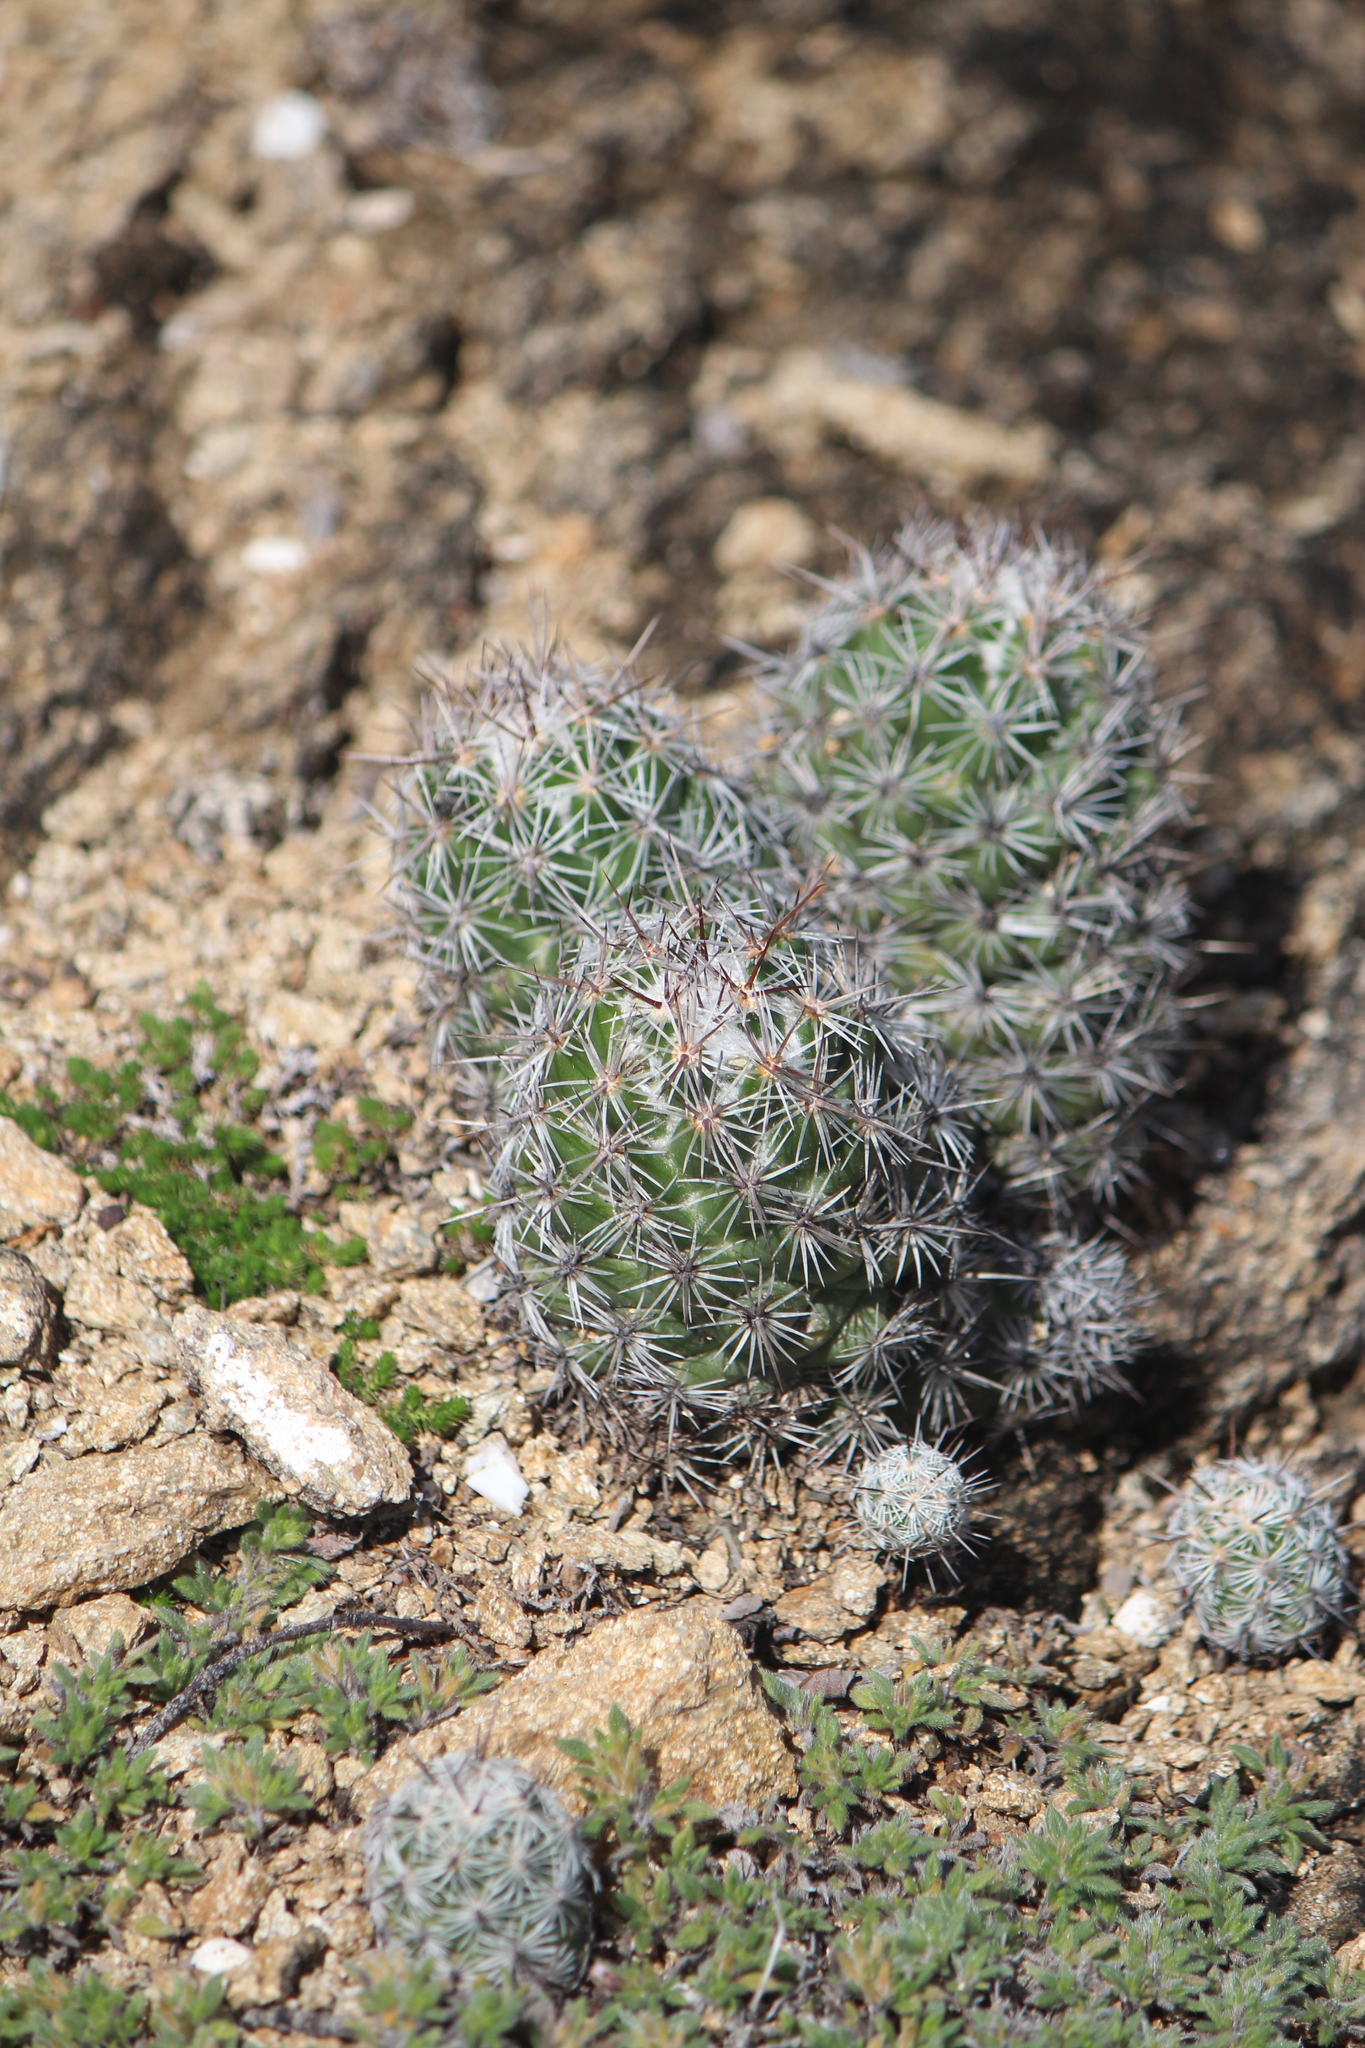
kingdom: Plantae
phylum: Tracheophyta
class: Magnoliopsida
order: Caryophyllales
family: Cactaceae
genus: Cochemiea
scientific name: Cochemiea conoidea
